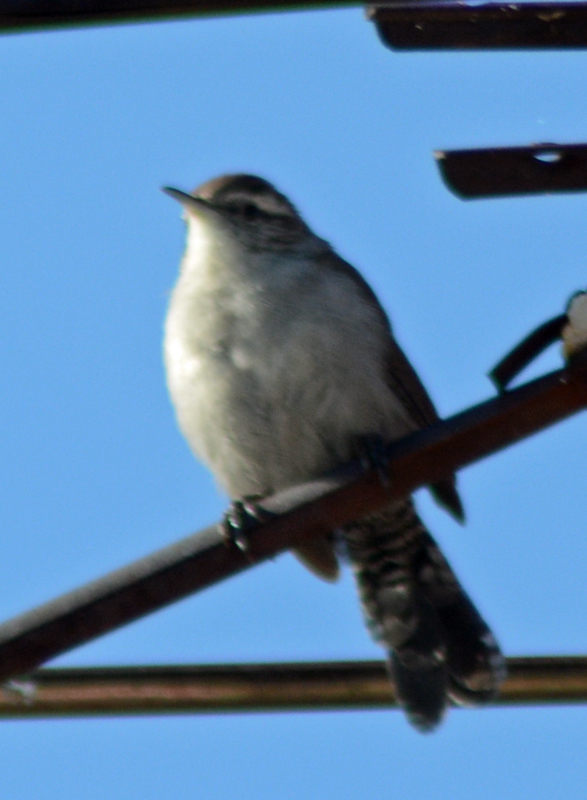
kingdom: Animalia
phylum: Chordata
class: Aves
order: Passeriformes
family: Troglodytidae
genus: Thryomanes
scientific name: Thryomanes bewickii
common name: Bewick's wren
